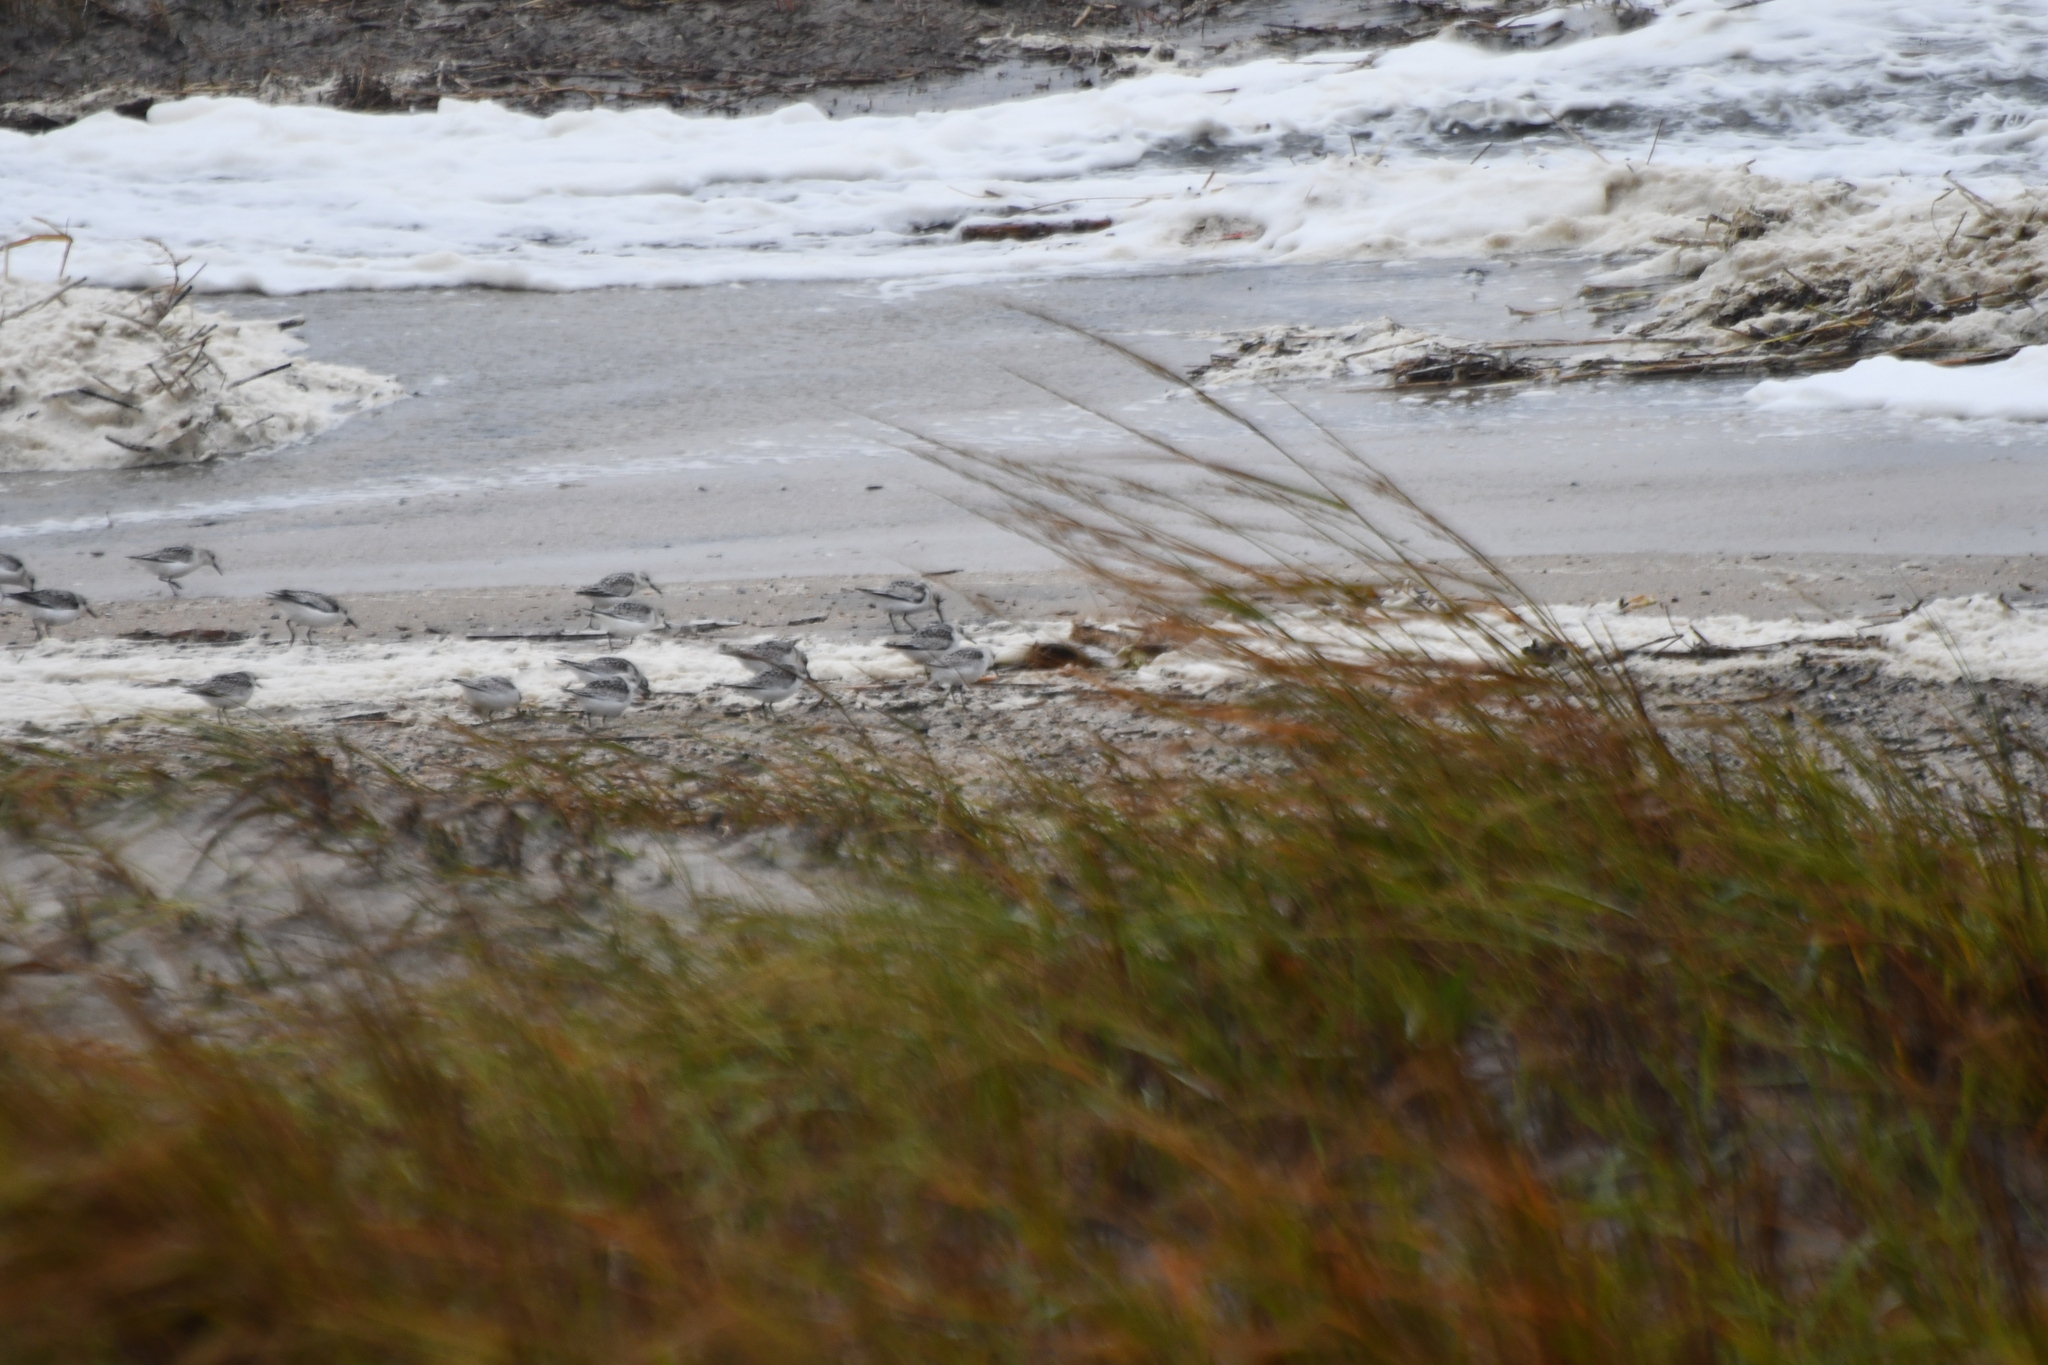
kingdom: Animalia
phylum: Chordata
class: Aves
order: Charadriiformes
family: Scolopacidae
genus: Calidris
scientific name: Calidris alba
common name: Sanderling
